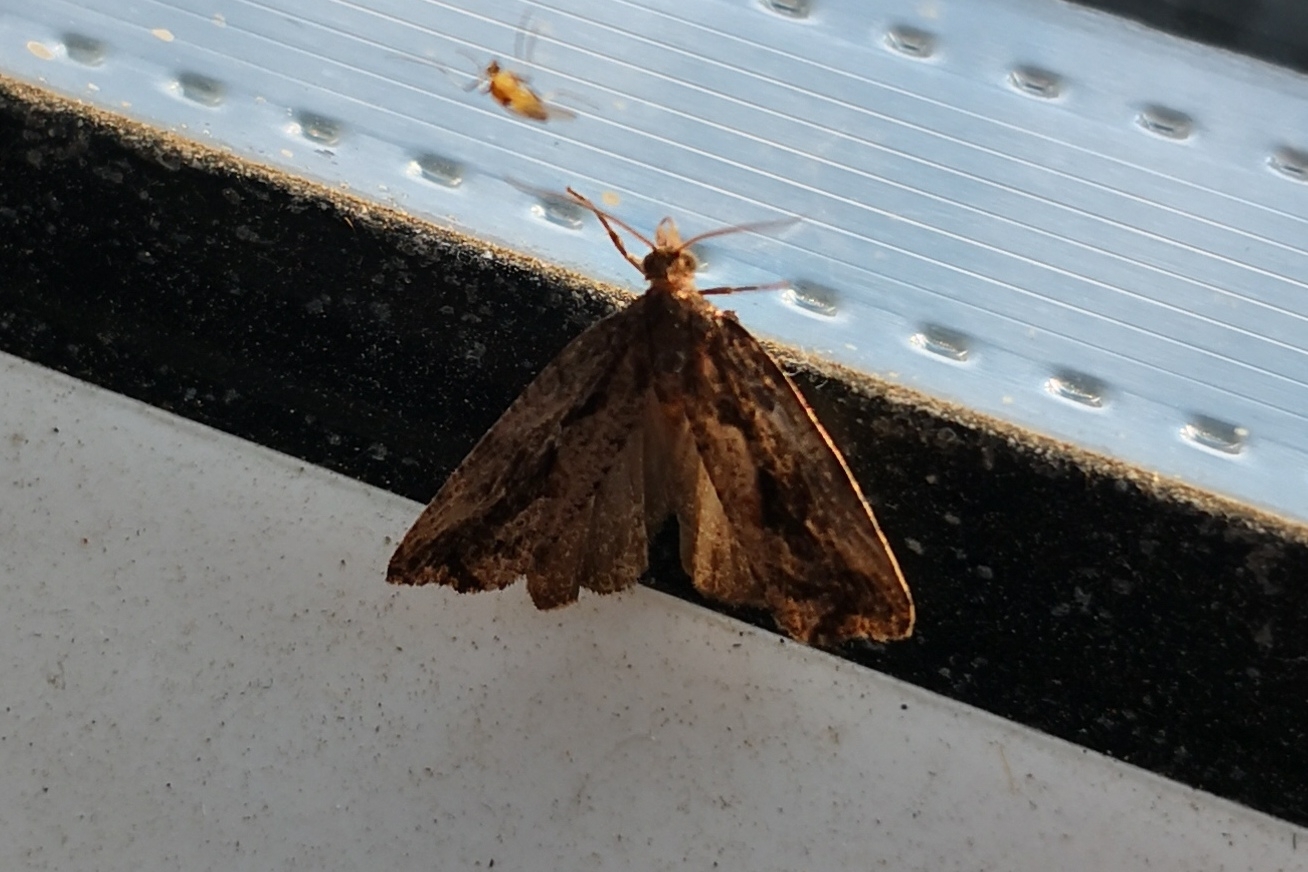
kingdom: Animalia
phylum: Arthropoda
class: Insecta
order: Lepidoptera
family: Tortricidae
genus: Endothenia
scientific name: Endothenia quadrimaculana
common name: Tortricid moth
